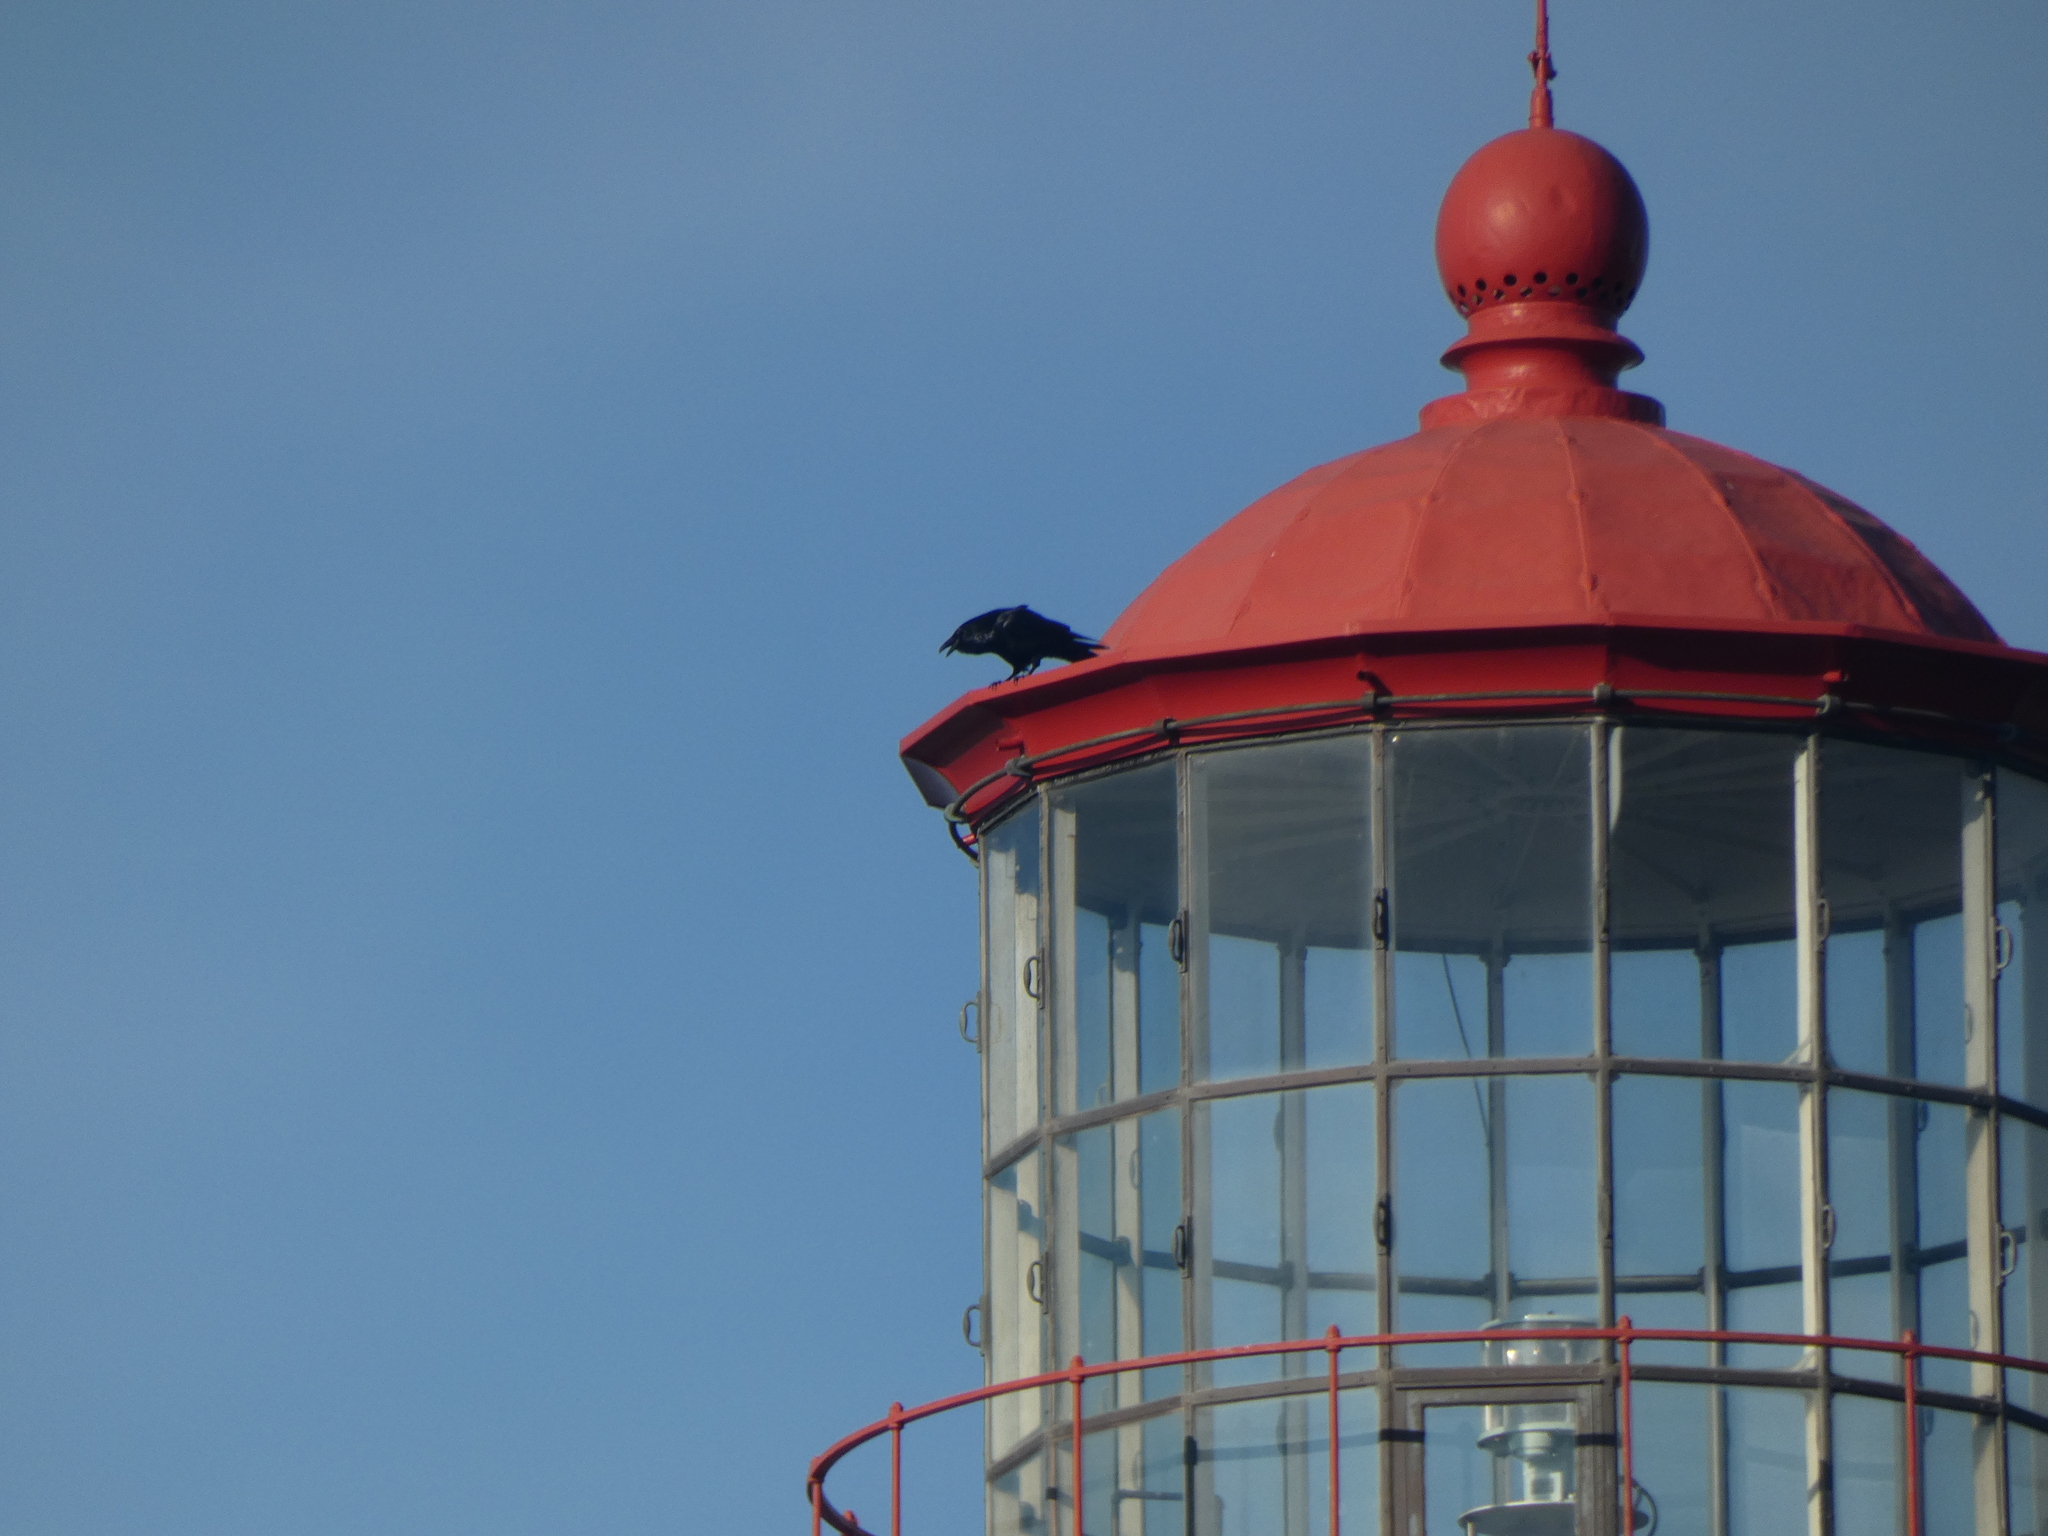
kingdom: Animalia
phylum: Chordata
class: Aves
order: Passeriformes
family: Corvidae
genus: Corvus
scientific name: Corvus corax
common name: Common raven
